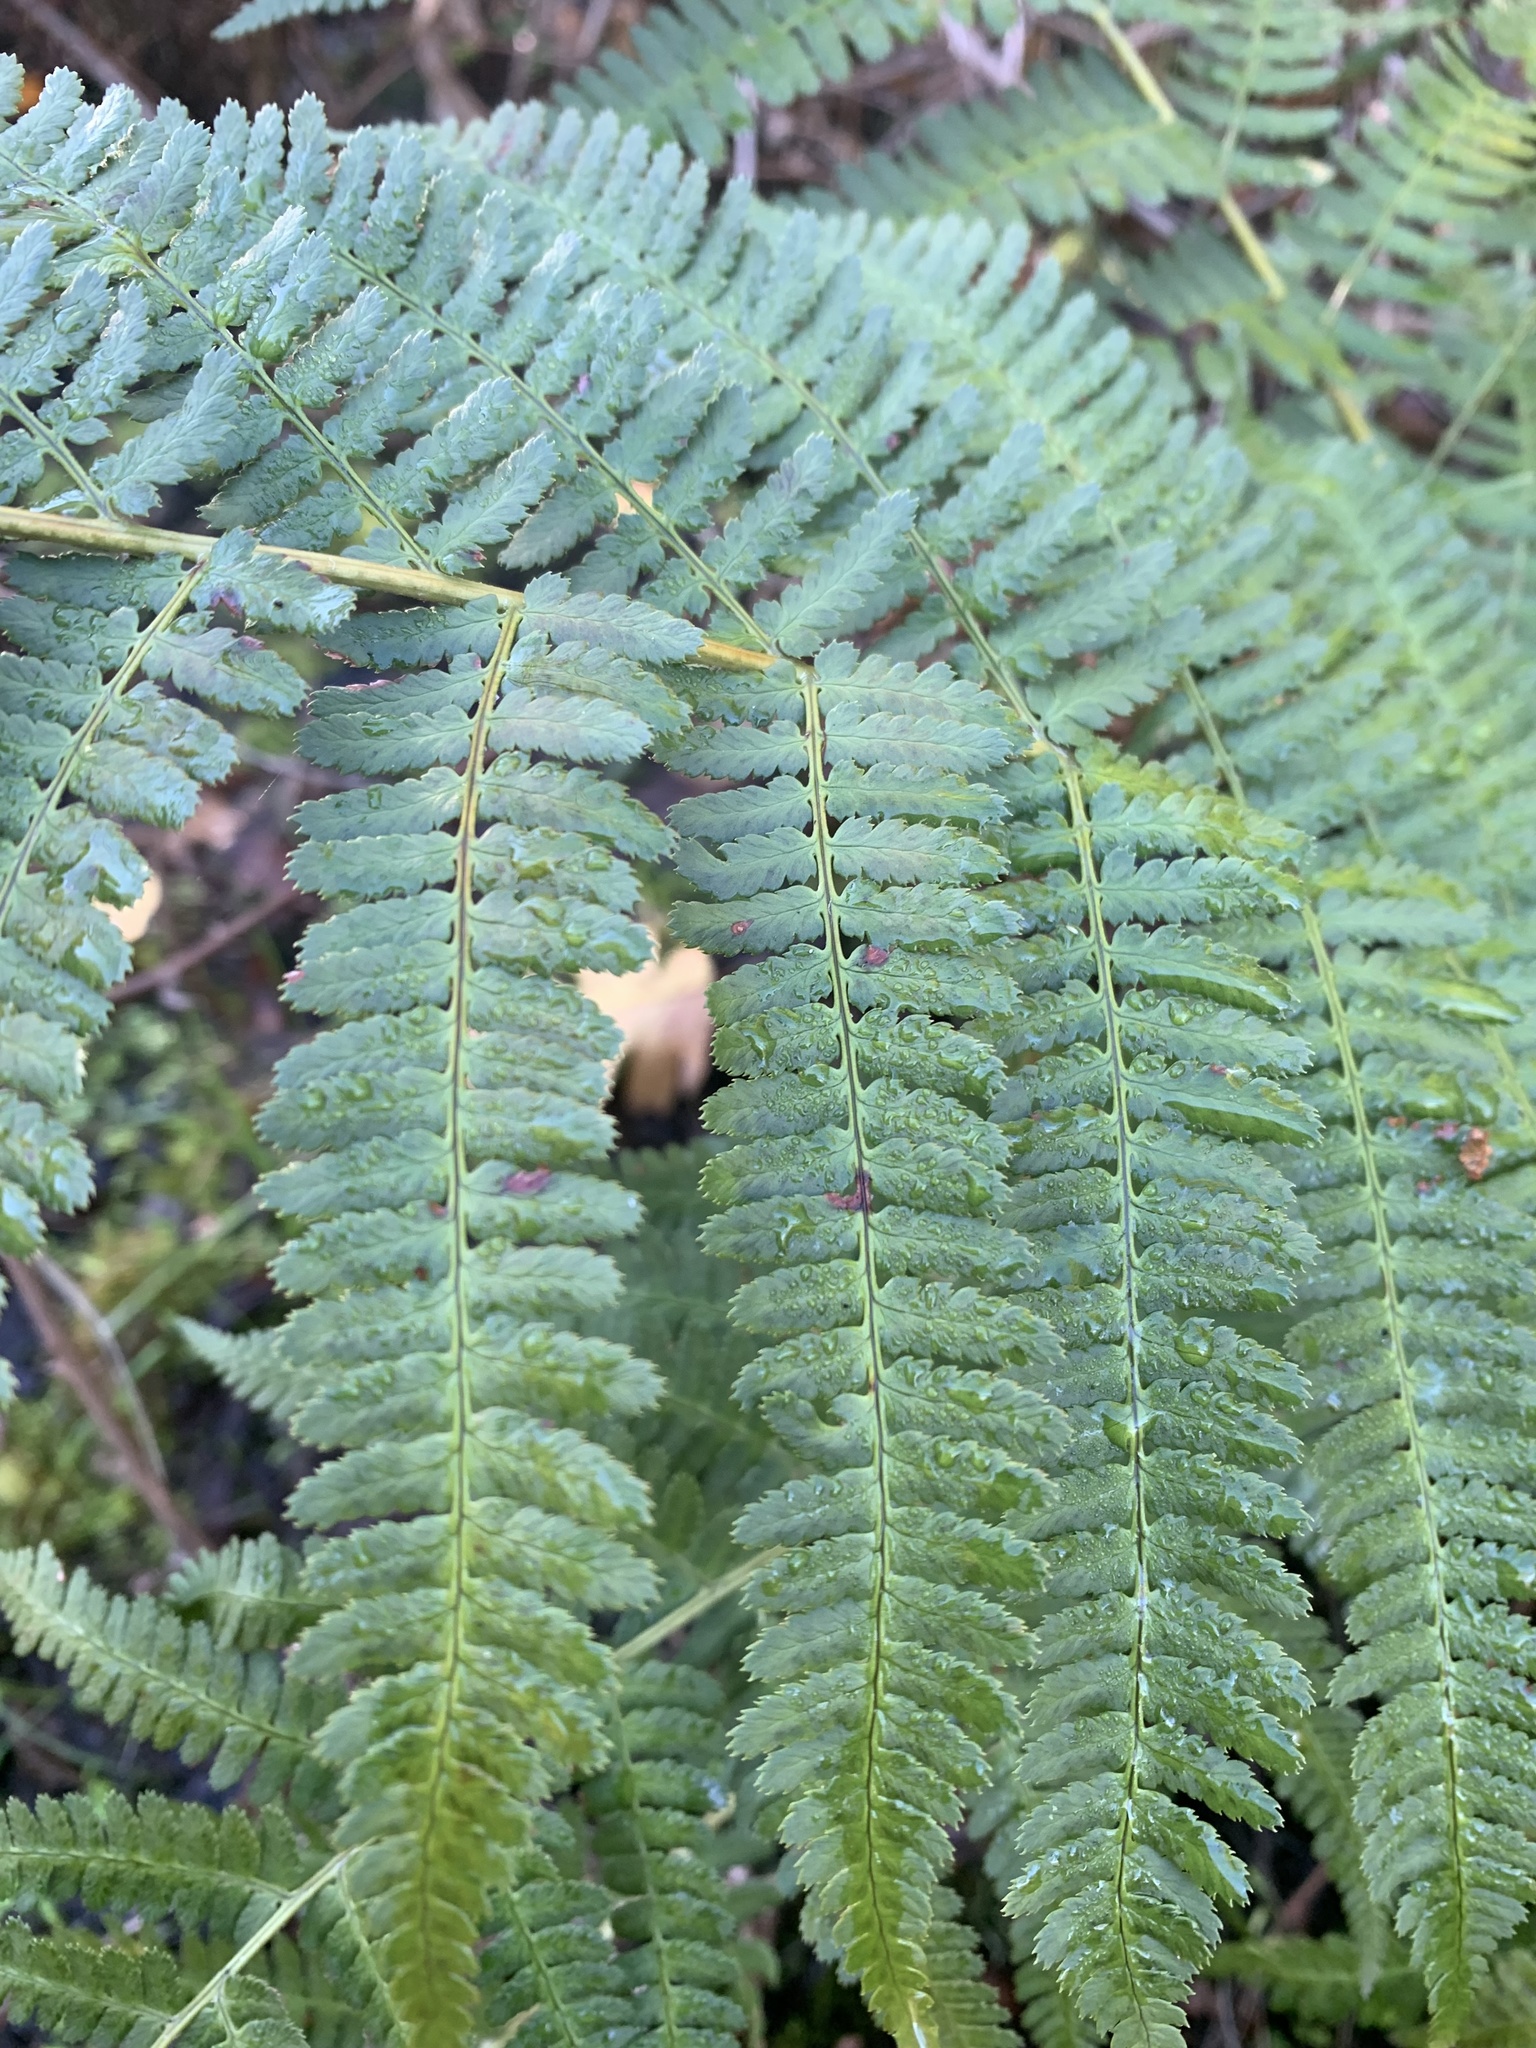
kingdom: Plantae
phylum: Tracheophyta
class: Polypodiopsida
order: Polypodiales
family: Dryopteridaceae
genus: Dryopteris
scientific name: Dryopteris arguta
